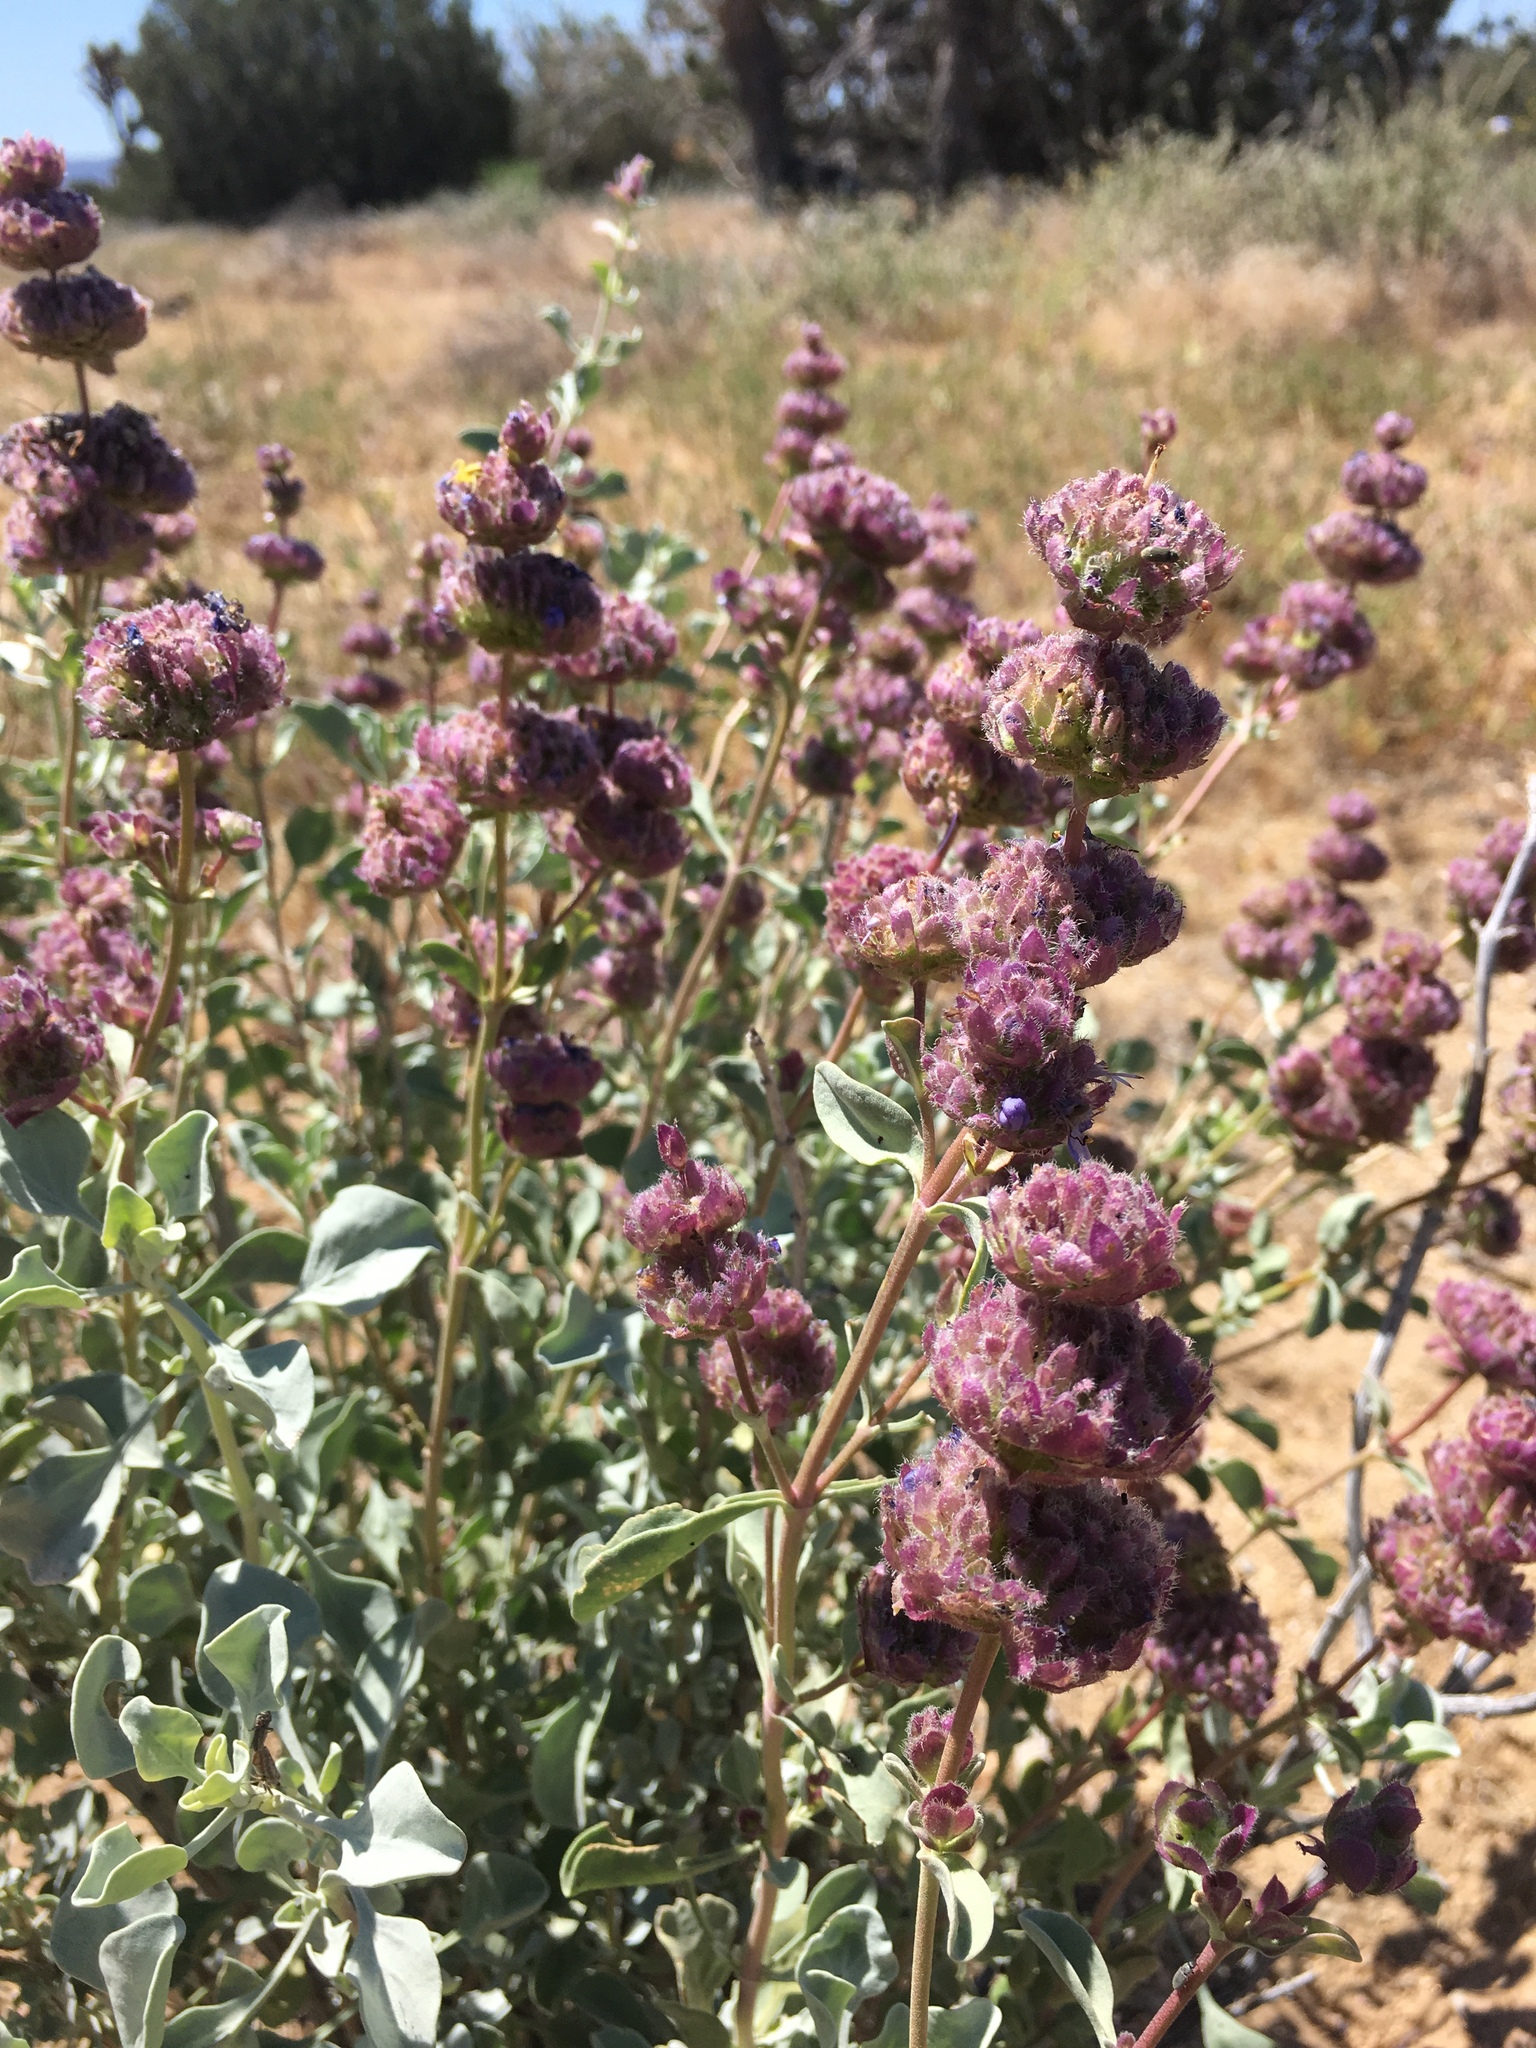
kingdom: Plantae
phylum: Tracheophyta
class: Magnoliopsida
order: Lamiales
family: Lamiaceae
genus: Salvia
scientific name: Salvia dorrii
